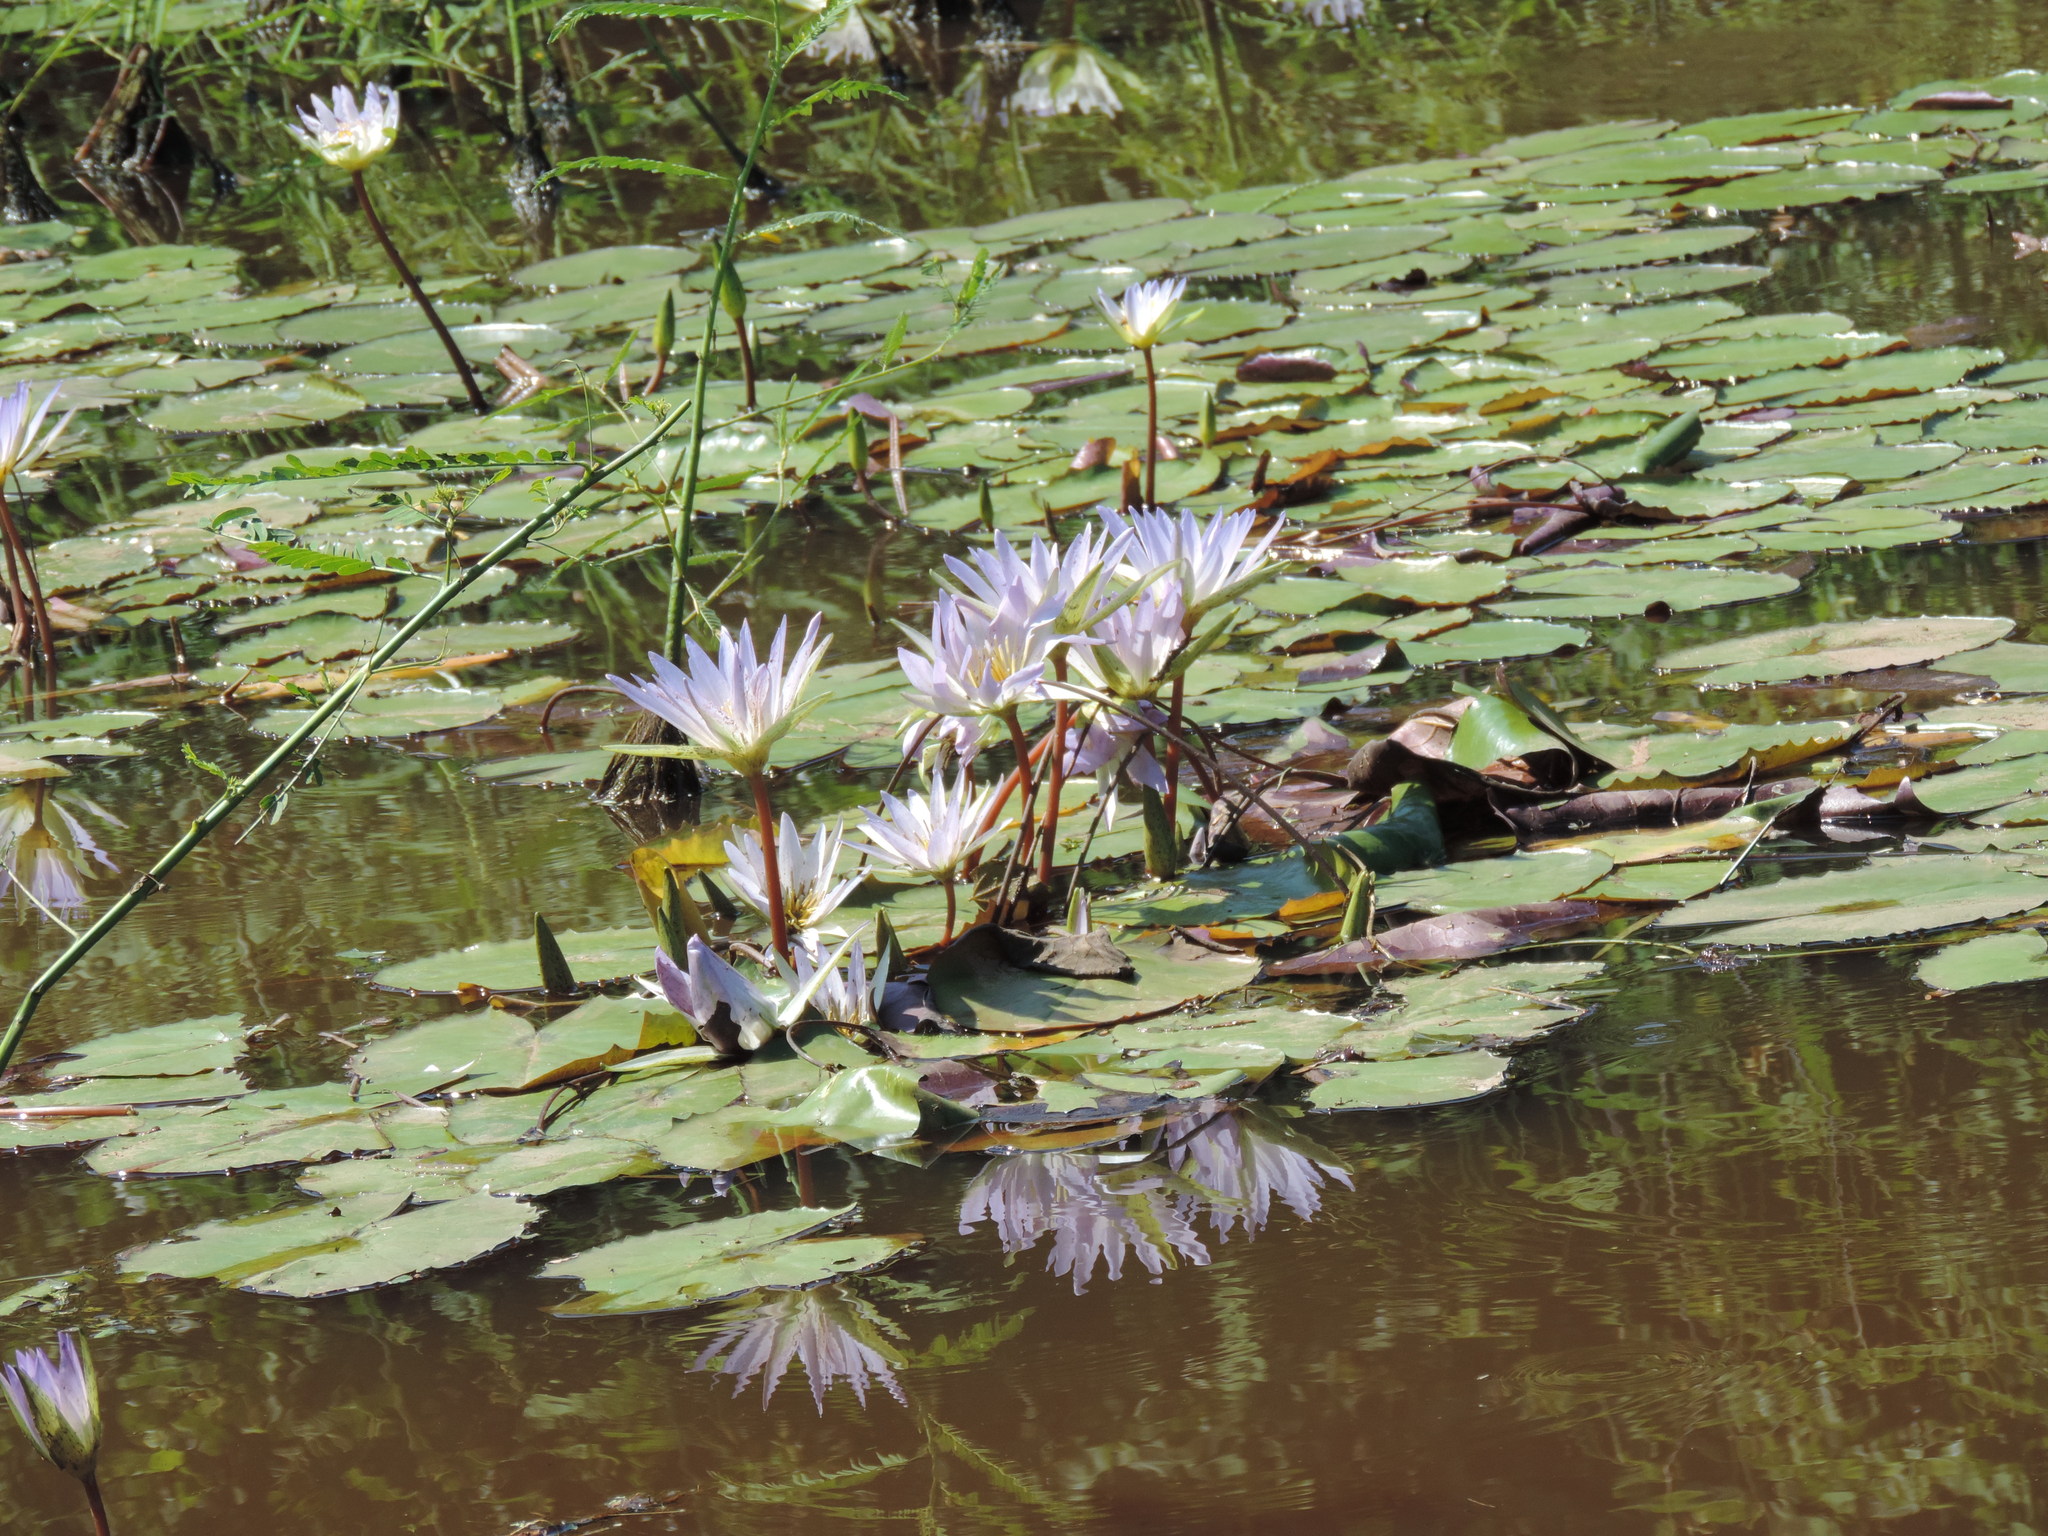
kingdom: Plantae
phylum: Tracheophyta
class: Magnoliopsida
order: Nymphaeales
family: Nymphaeaceae
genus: Nymphaea
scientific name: Nymphaea elegans
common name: Blue water-lily
